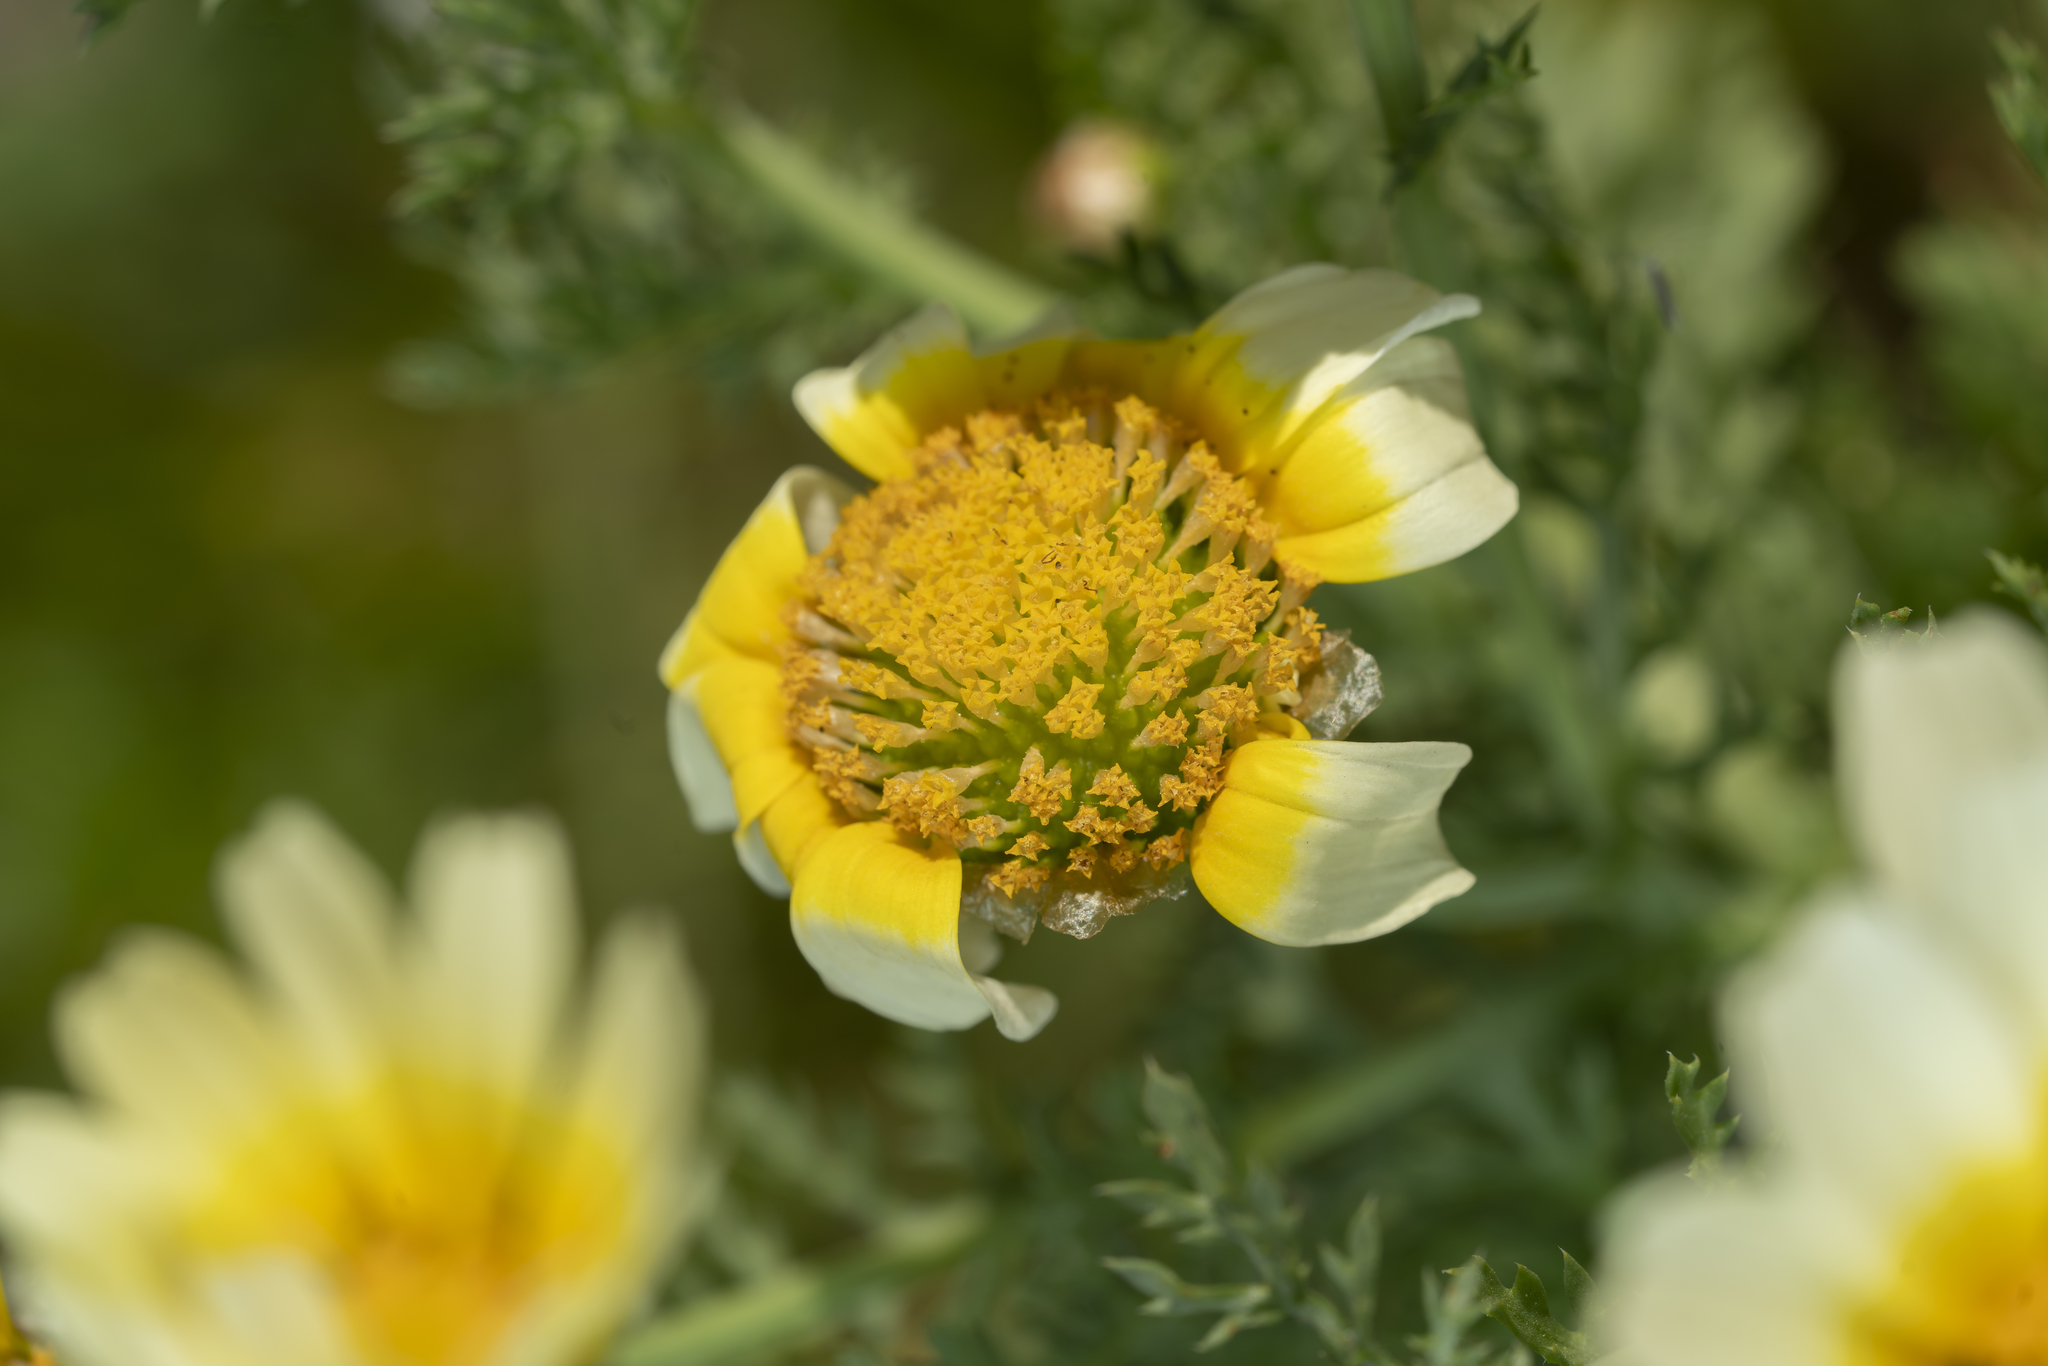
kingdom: Plantae
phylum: Tracheophyta
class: Magnoliopsida
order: Asterales
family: Asteraceae
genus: Glebionis
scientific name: Glebionis coronaria
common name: Crowndaisy
